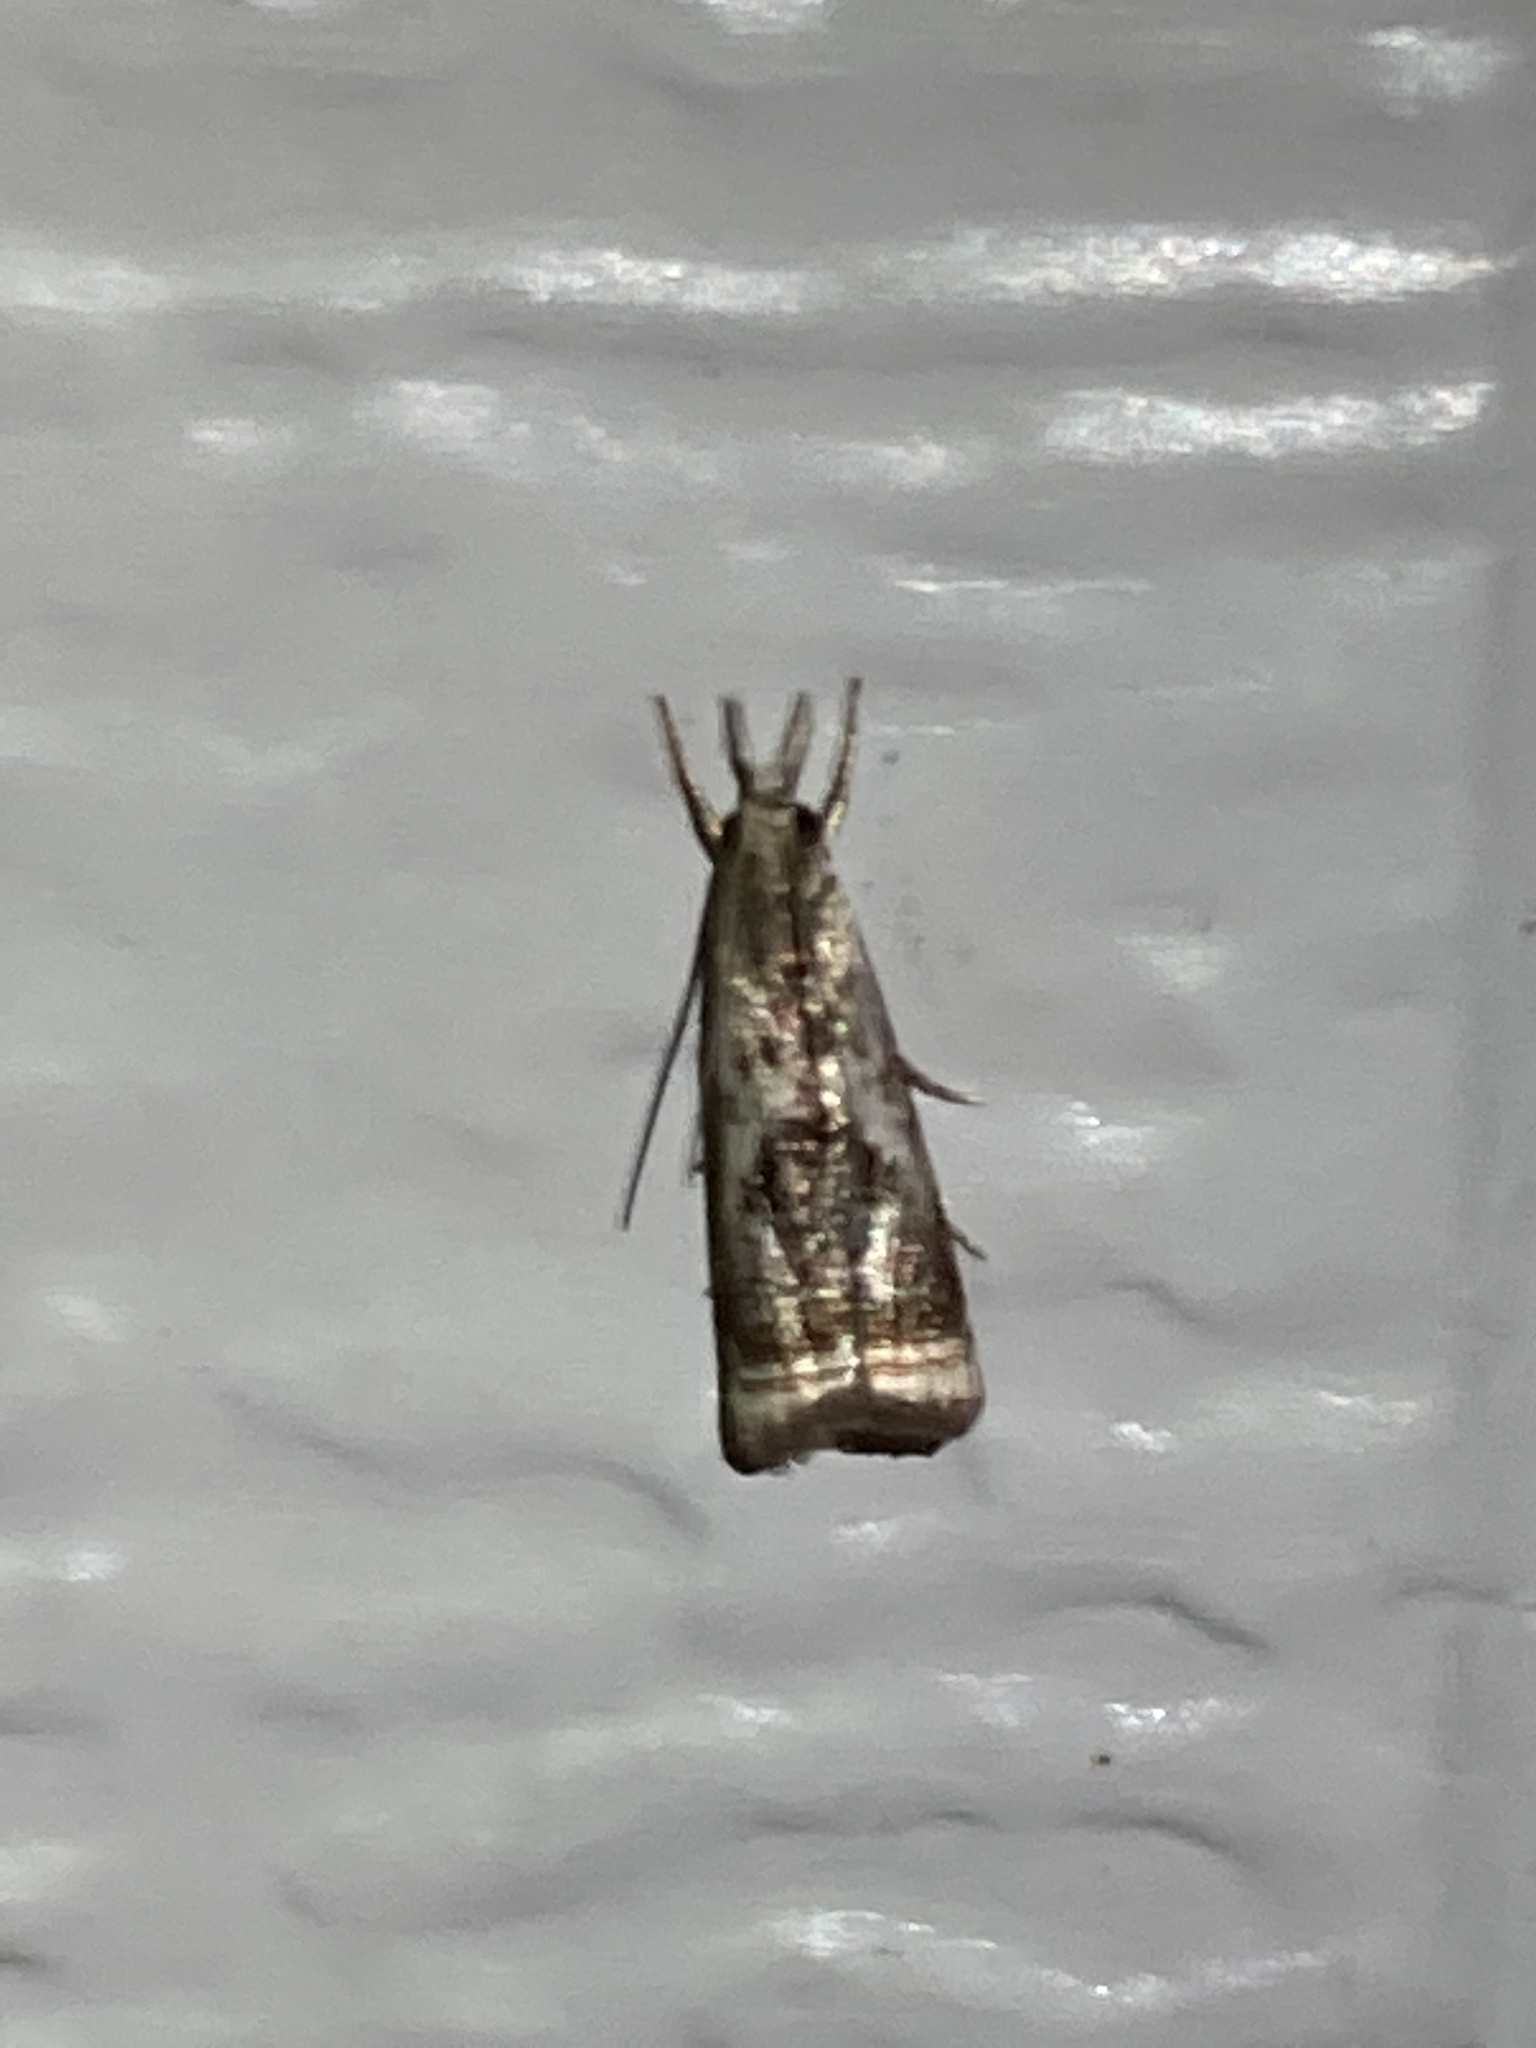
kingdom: Animalia
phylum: Arthropoda
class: Insecta
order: Lepidoptera
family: Crambidae
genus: Microcrambus
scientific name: Microcrambus elegans
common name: Elegant grass-veneer
